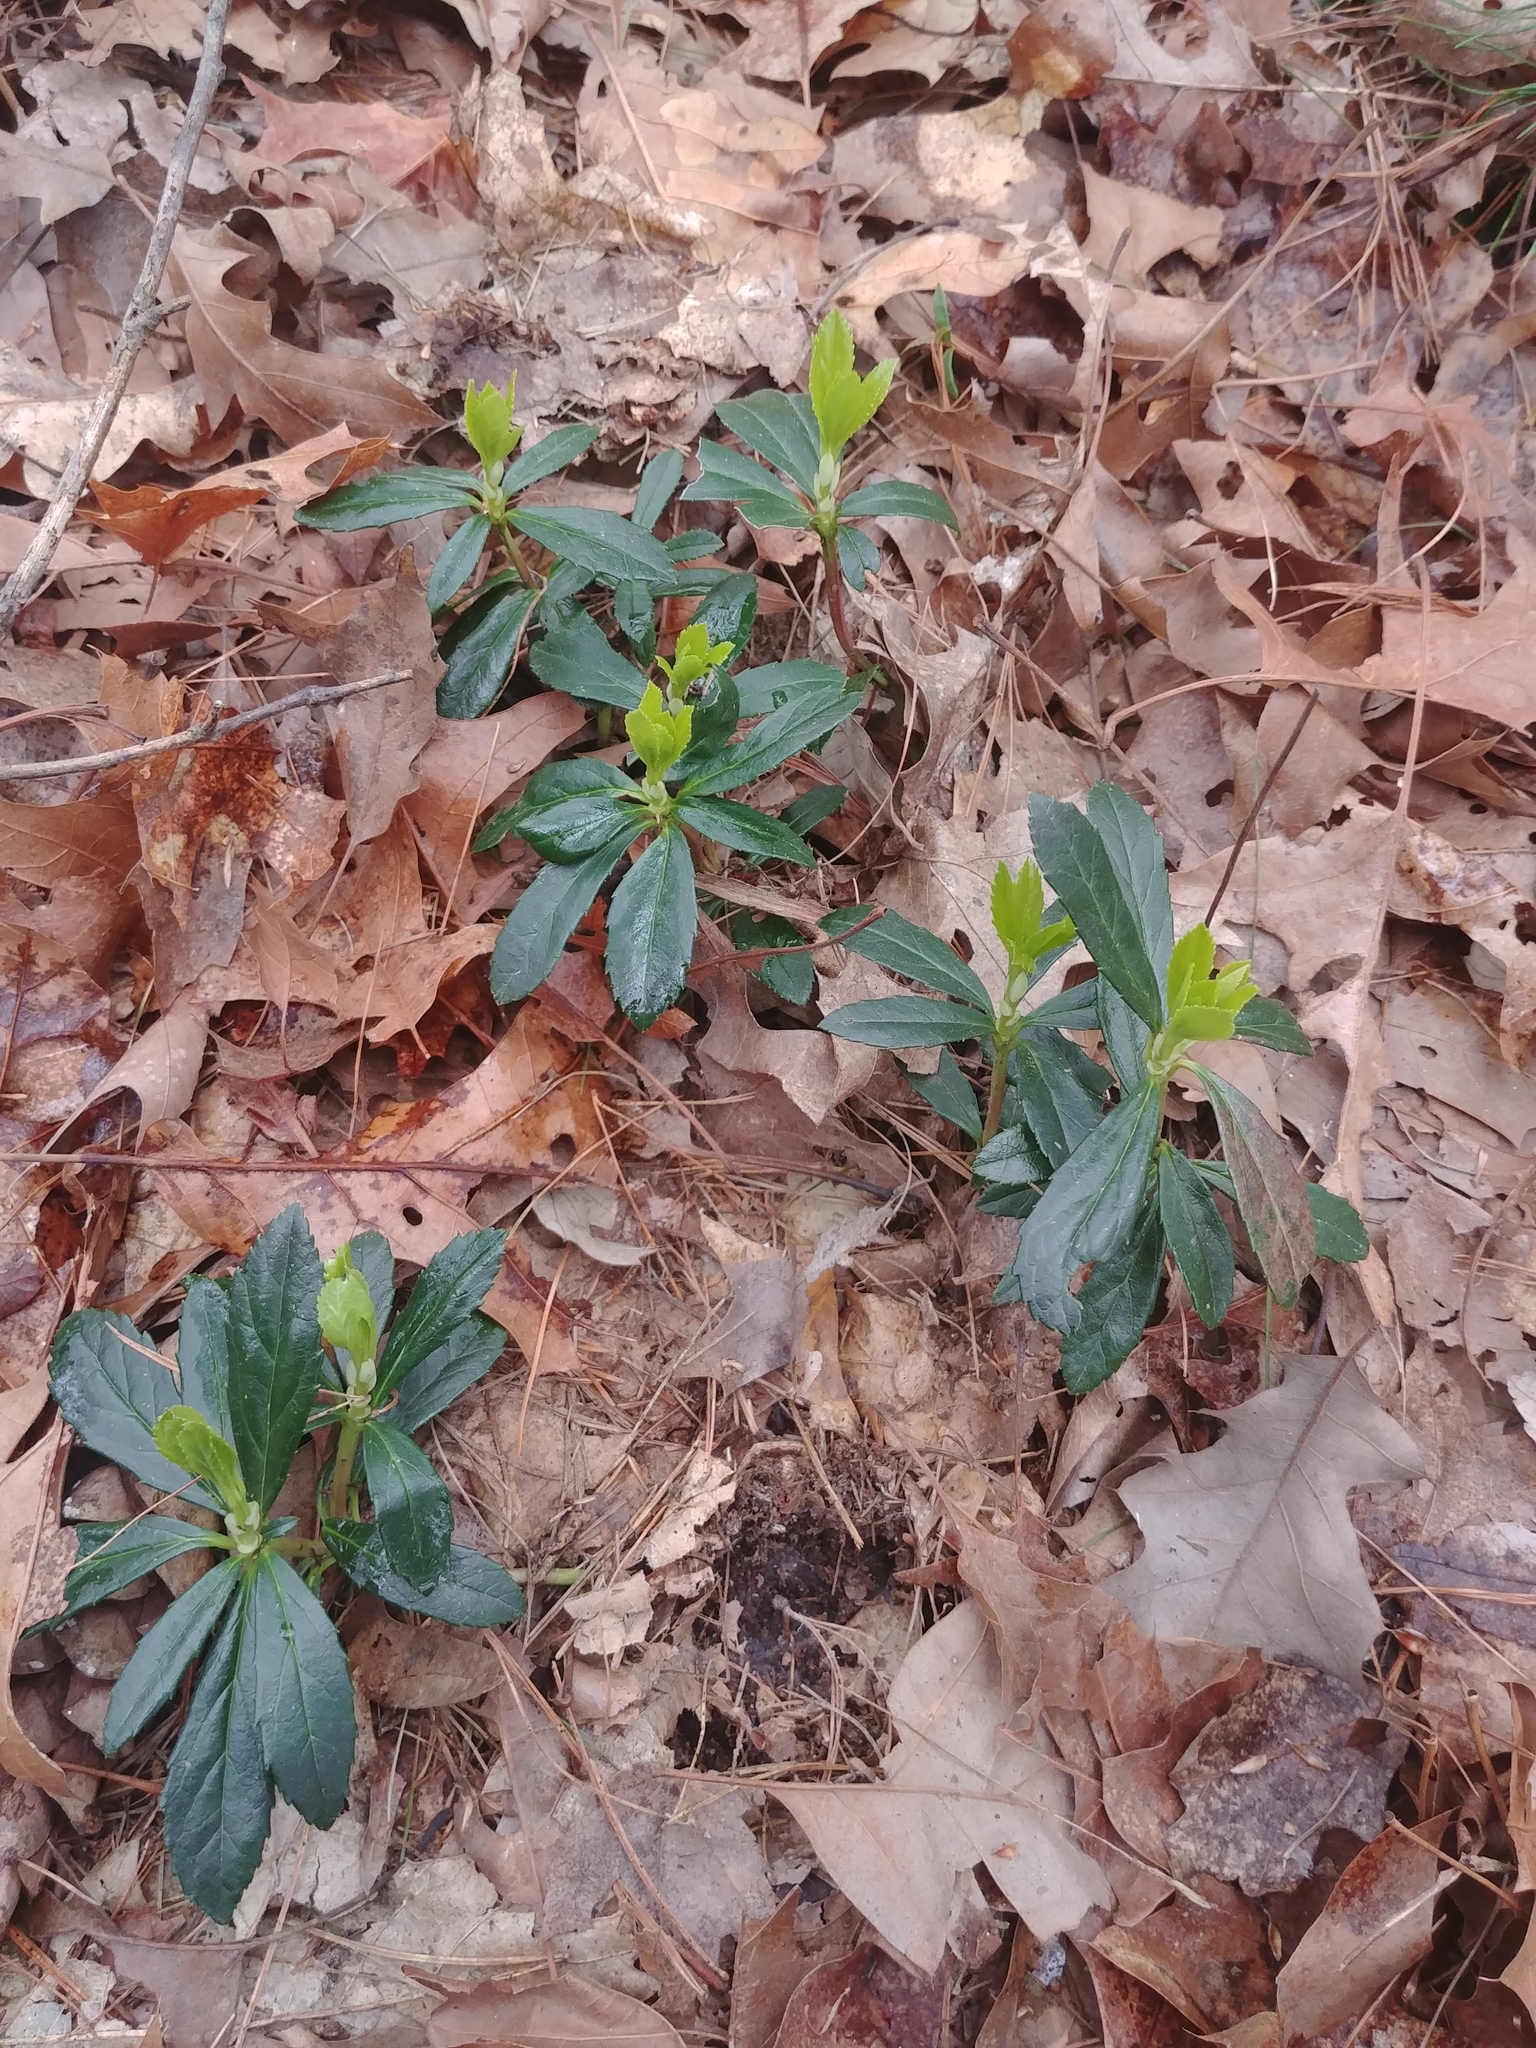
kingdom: Plantae
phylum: Tracheophyta
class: Magnoliopsida
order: Ericales
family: Ericaceae
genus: Chimaphila
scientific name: Chimaphila umbellata
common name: Pipsissewa
